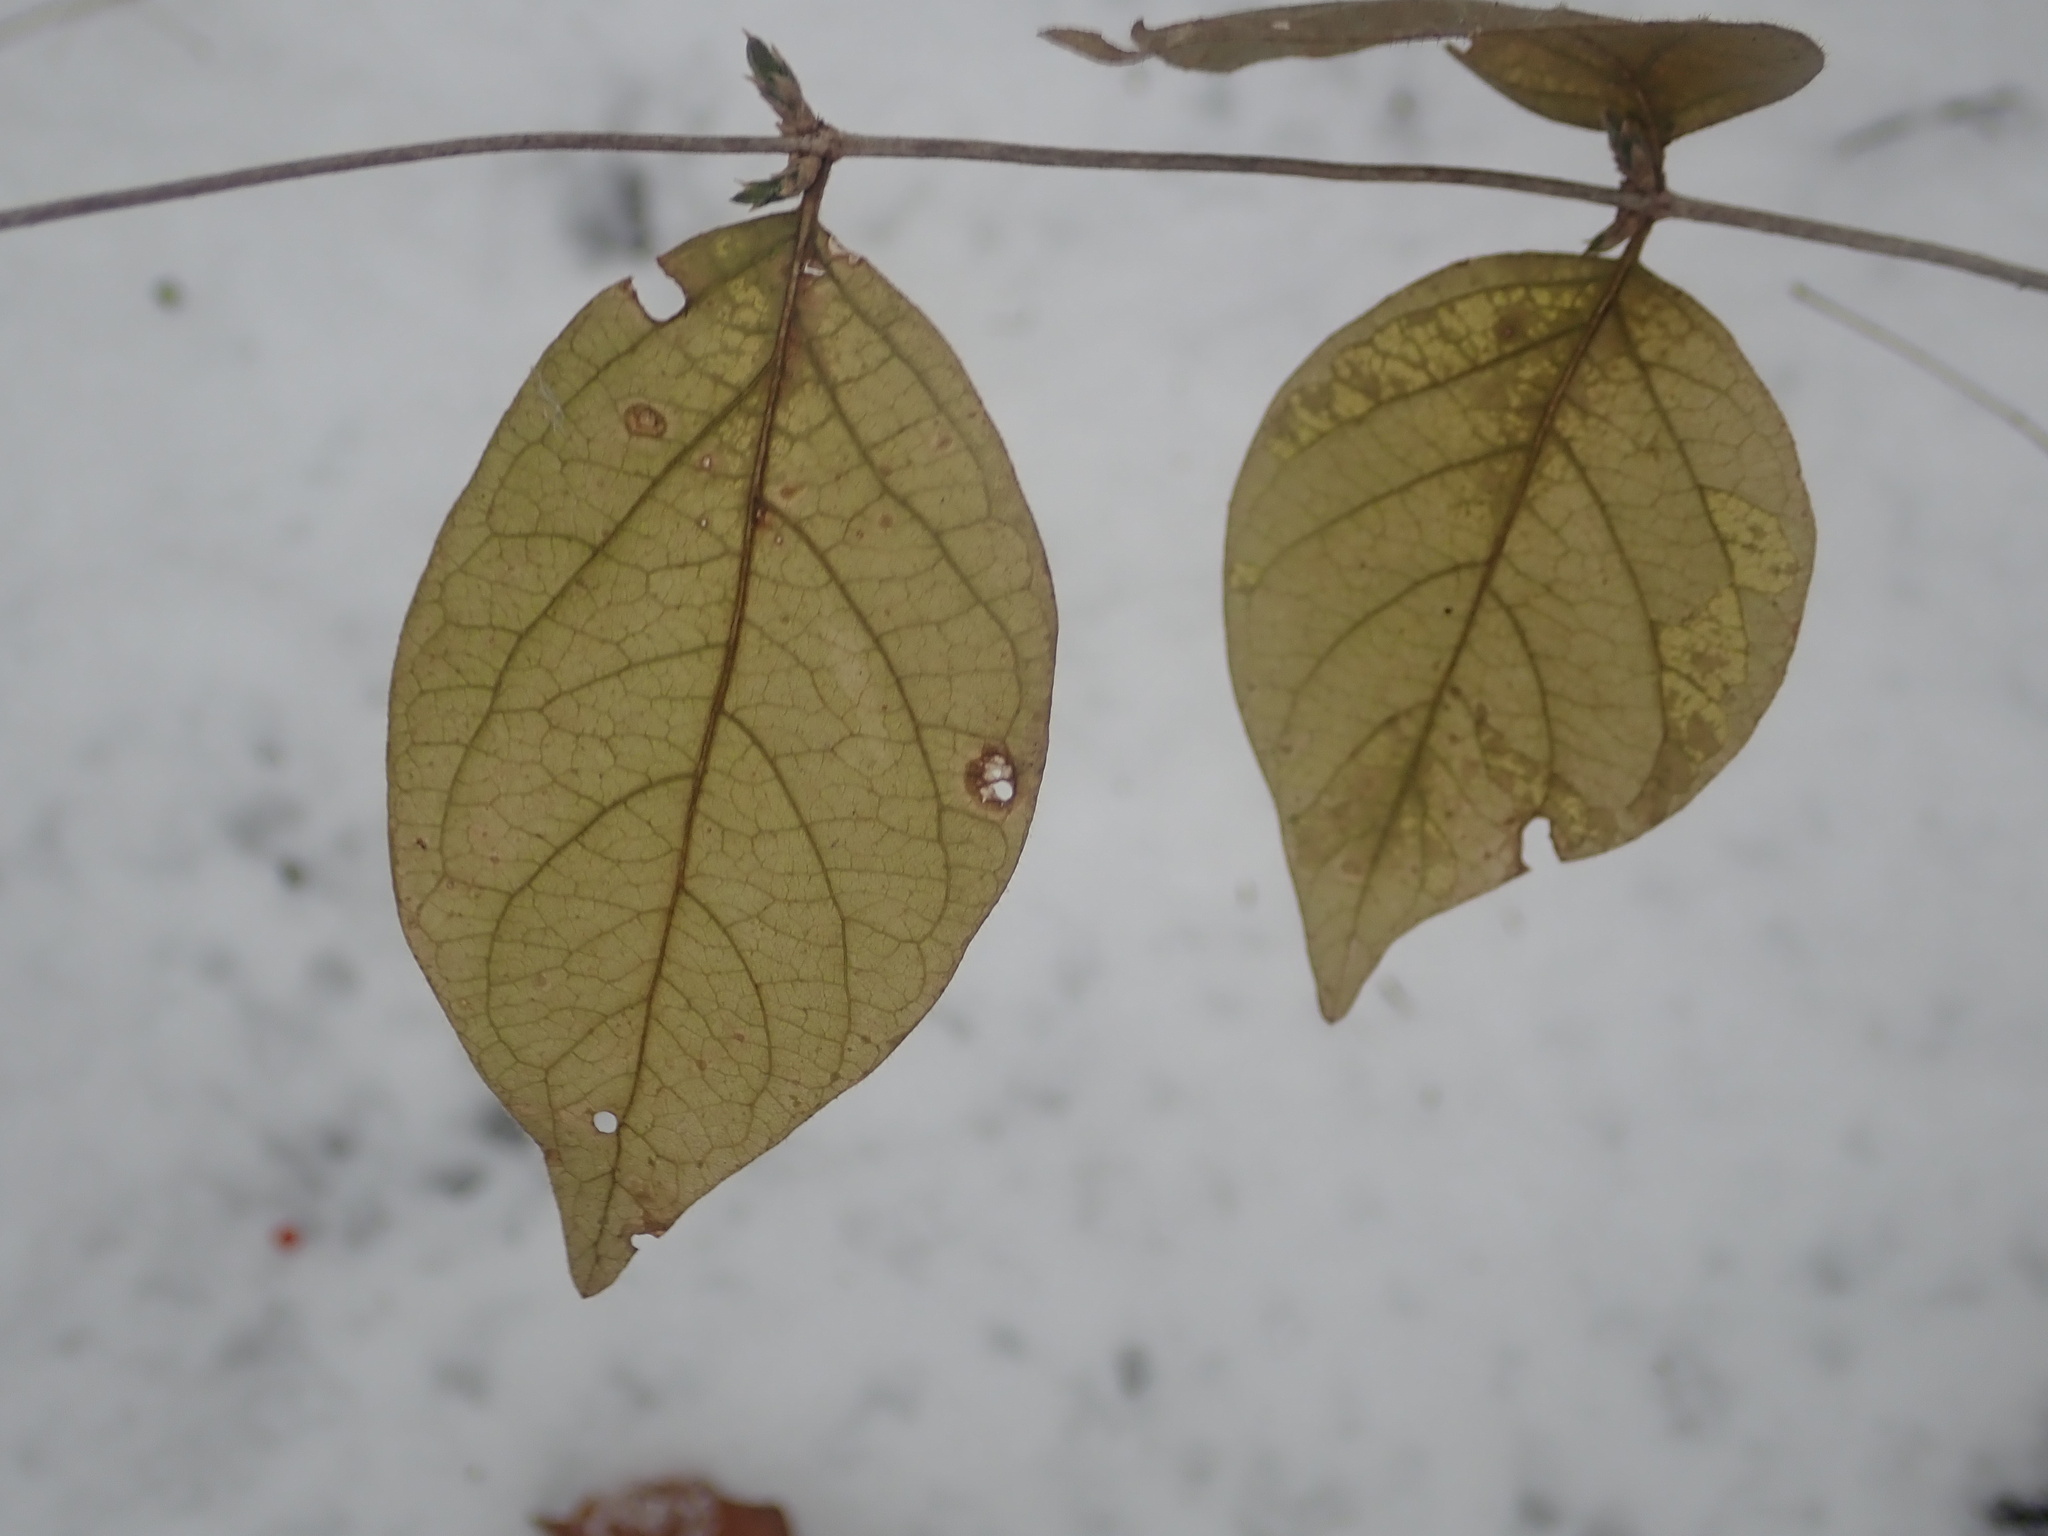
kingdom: Plantae
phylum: Tracheophyta
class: Magnoliopsida
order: Dipsacales
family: Caprifoliaceae
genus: Lonicera
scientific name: Lonicera maackii
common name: Amur honeysuckle
